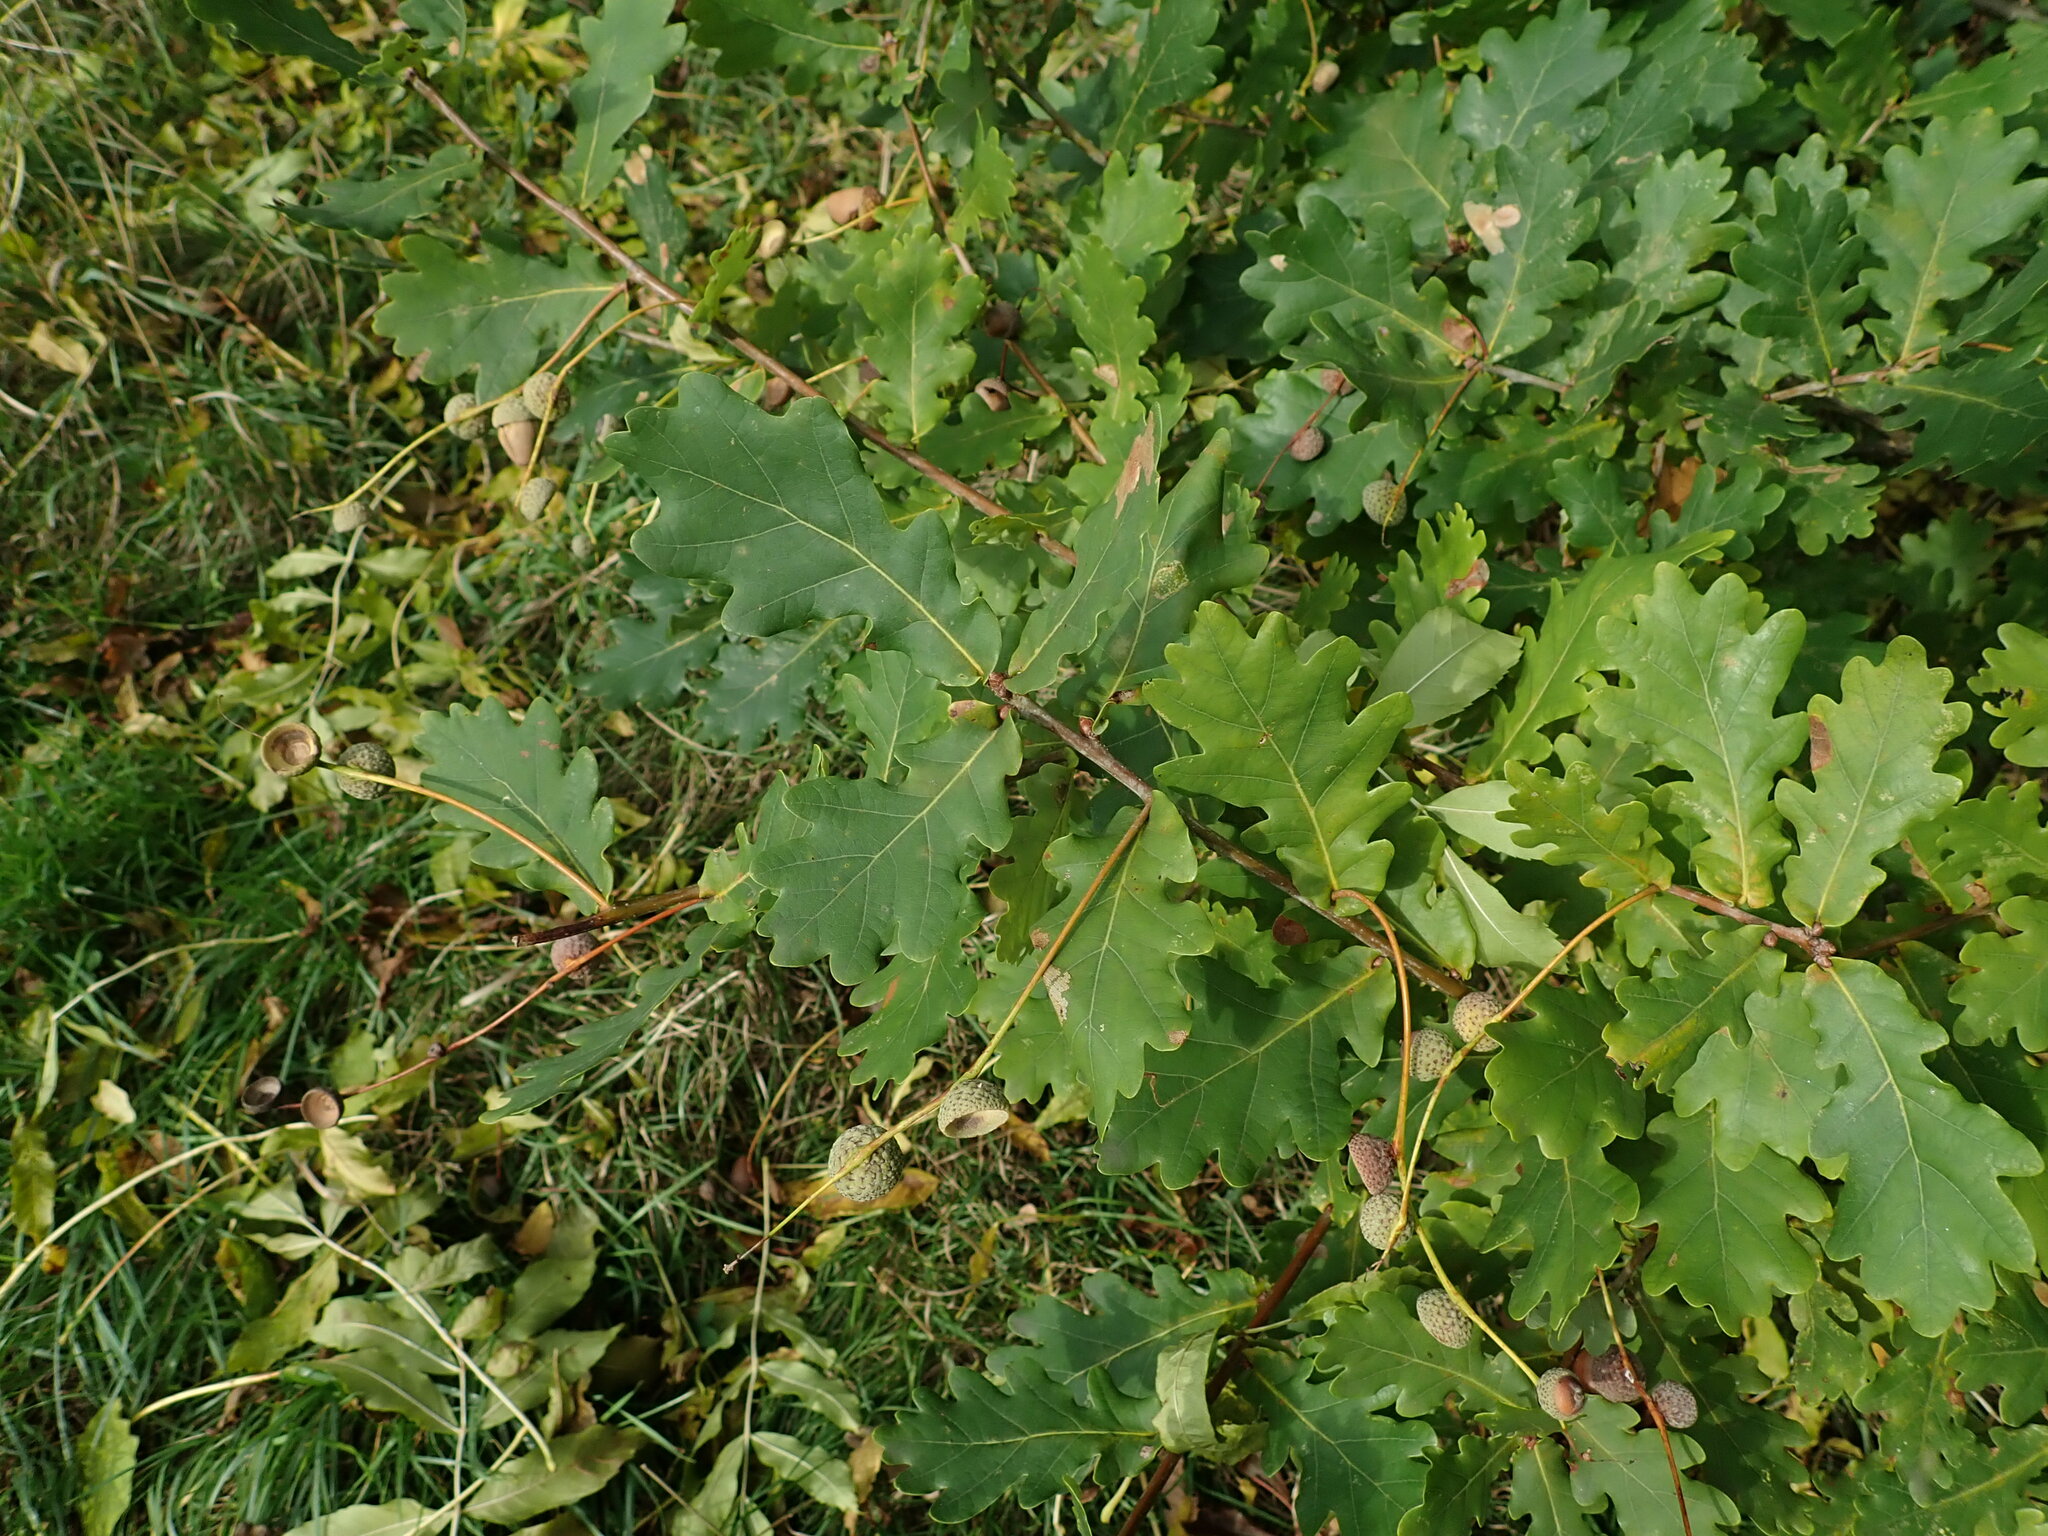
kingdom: Plantae
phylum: Tracheophyta
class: Magnoliopsida
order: Fagales
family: Fagaceae
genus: Quercus
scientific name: Quercus robur
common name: Pedunculate oak
